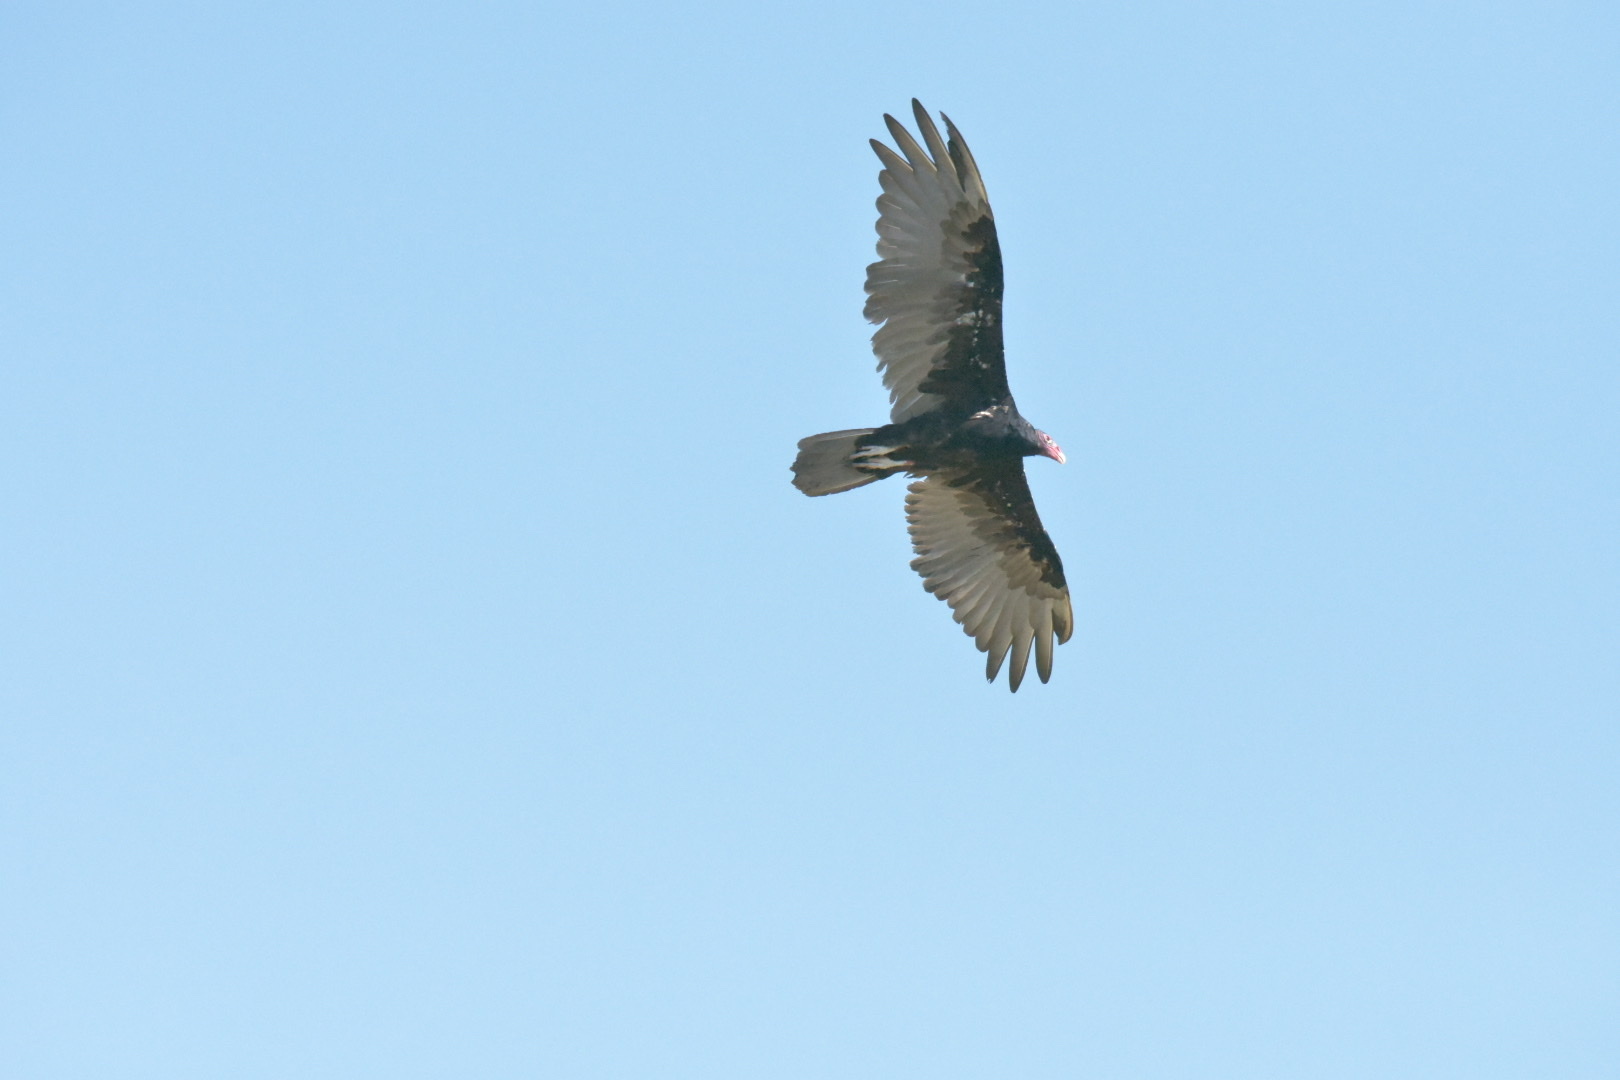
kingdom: Animalia
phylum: Chordata
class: Aves
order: Accipitriformes
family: Cathartidae
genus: Cathartes
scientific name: Cathartes aura
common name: Turkey vulture
